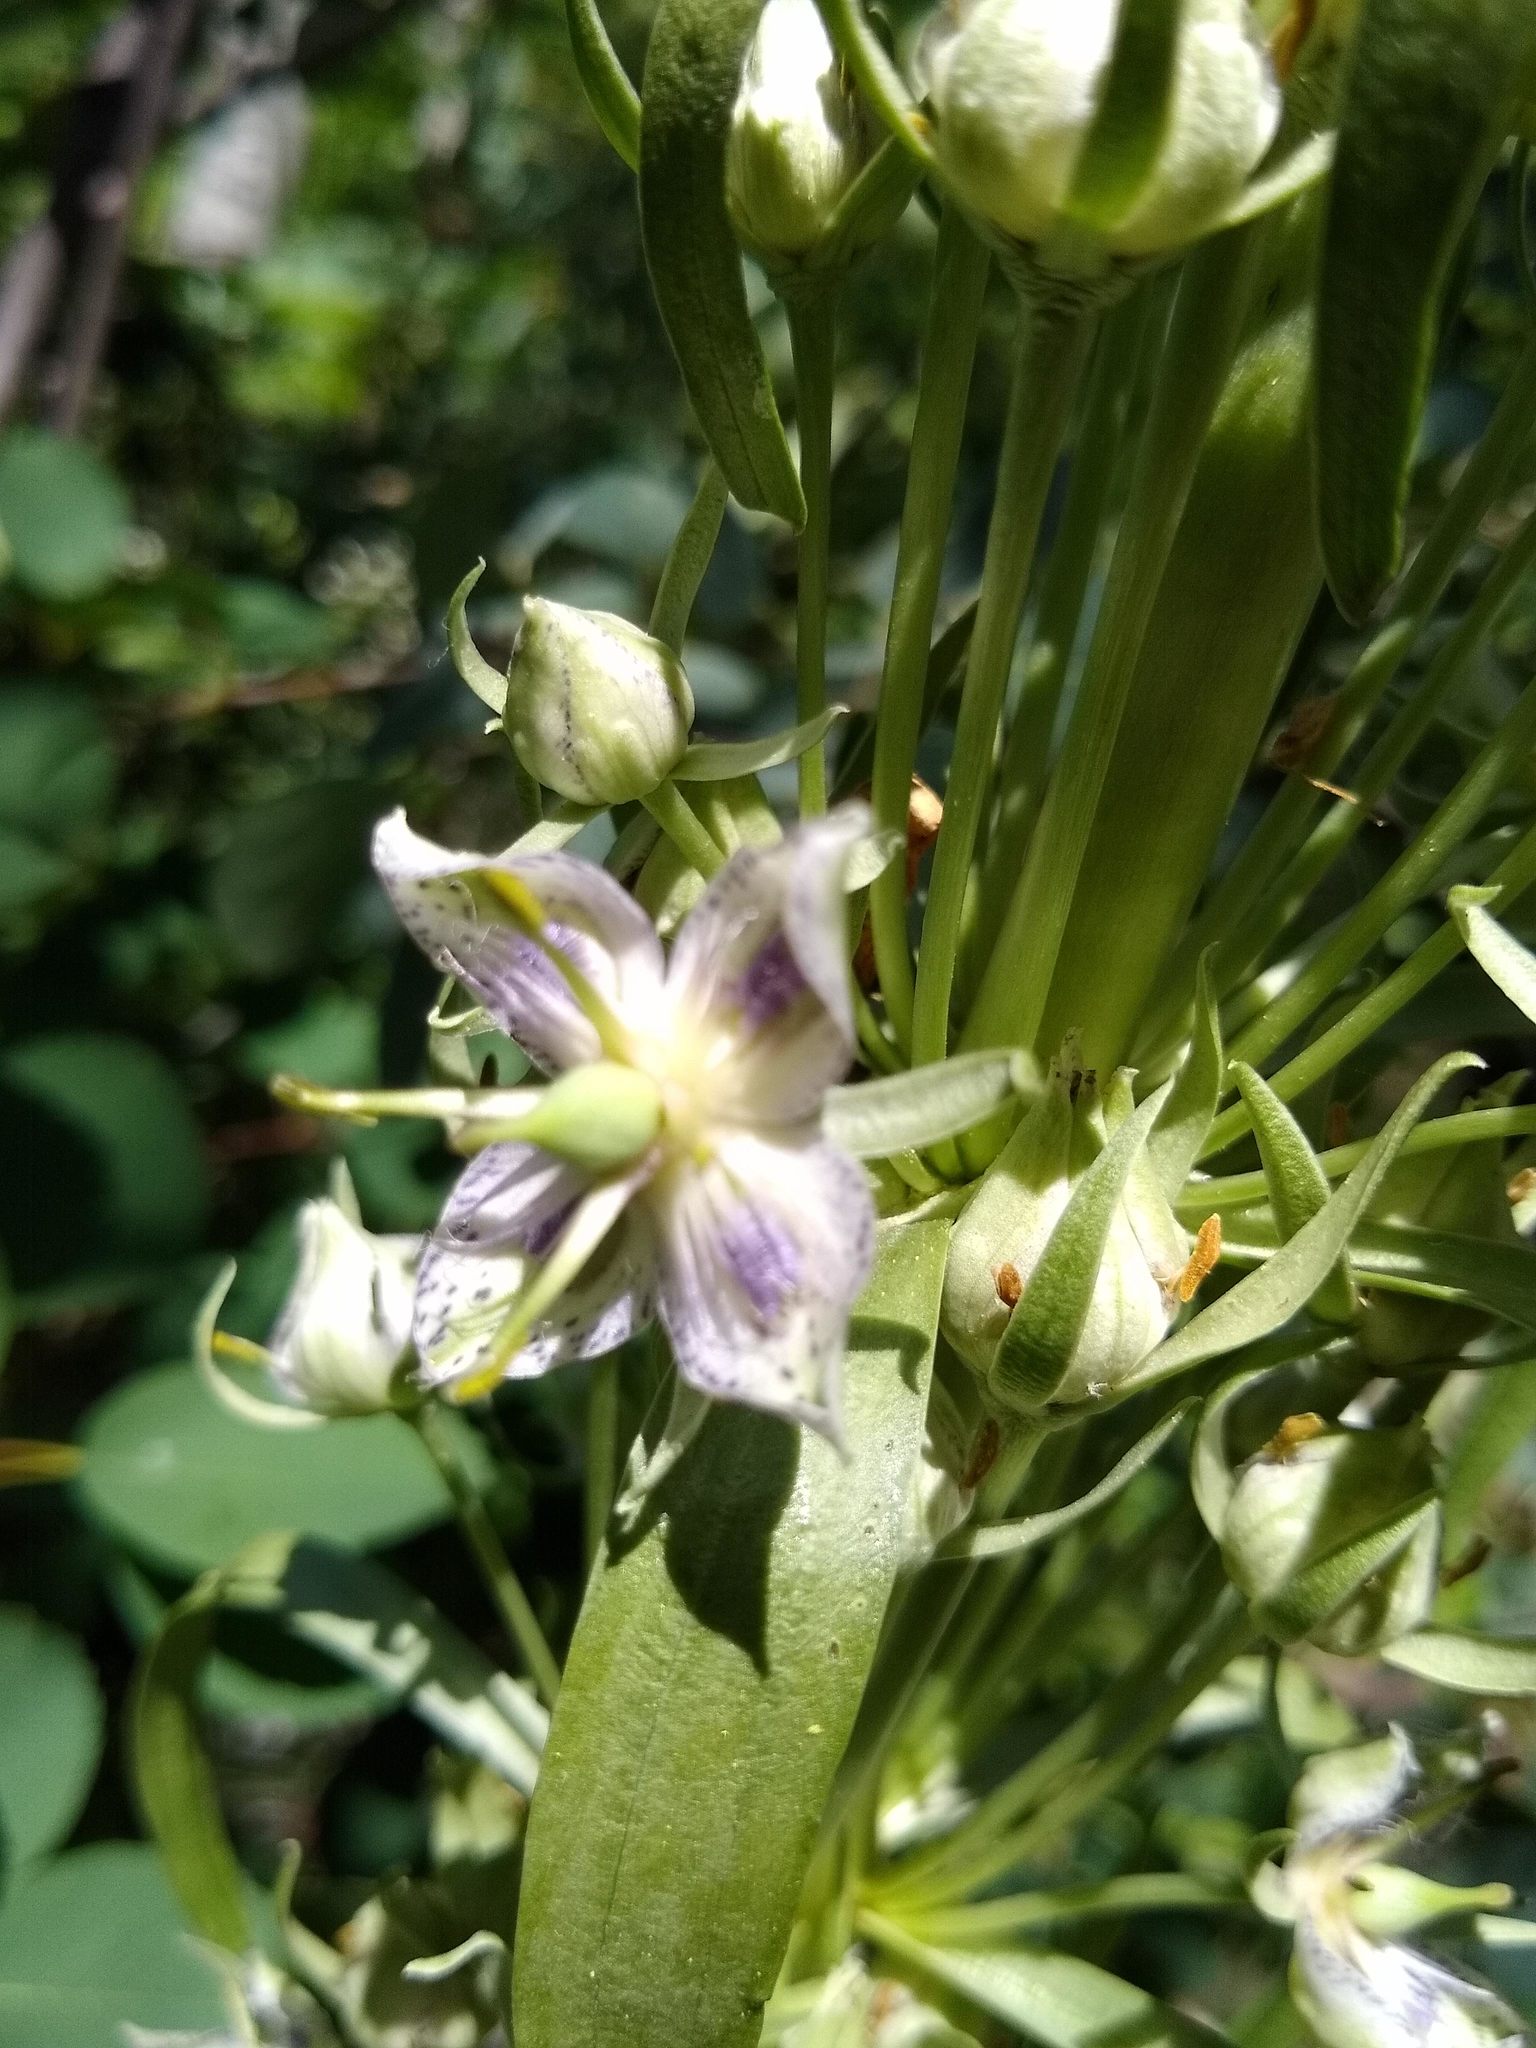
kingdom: Plantae
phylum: Tracheophyta
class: Magnoliopsida
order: Gentianales
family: Gentianaceae
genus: Frasera
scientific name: Frasera speciosa
